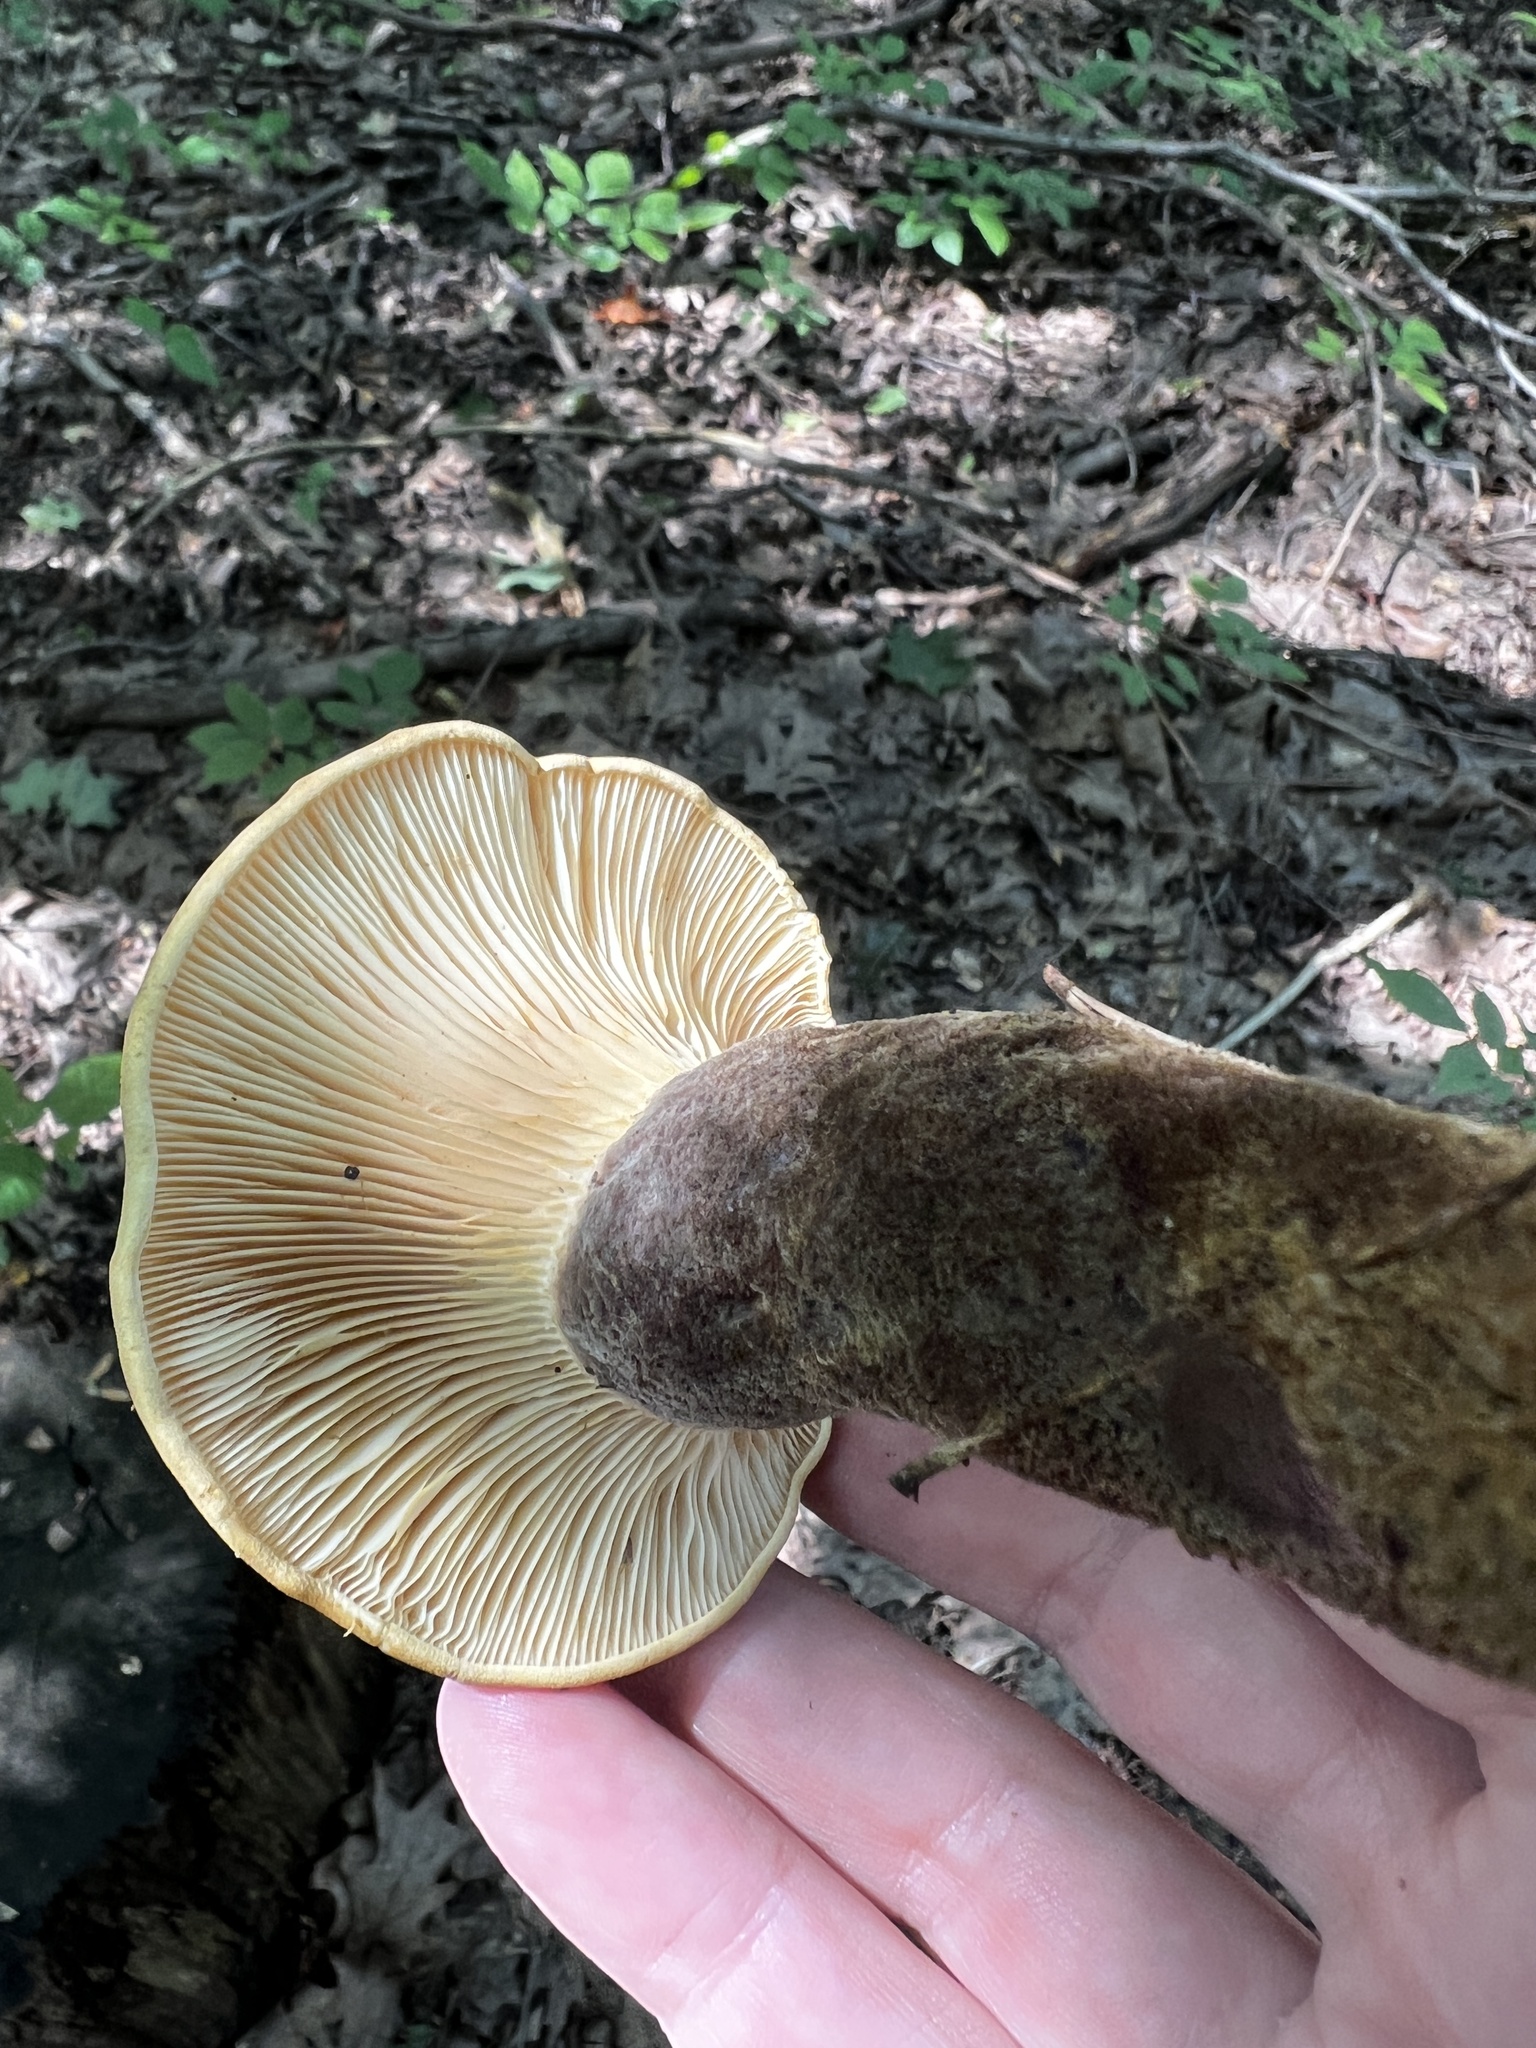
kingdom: Fungi
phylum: Basidiomycota
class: Agaricomycetes
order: Boletales
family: Tapinellaceae
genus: Tapinella
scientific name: Tapinella atrotomentosa
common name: Velvet rollrim
